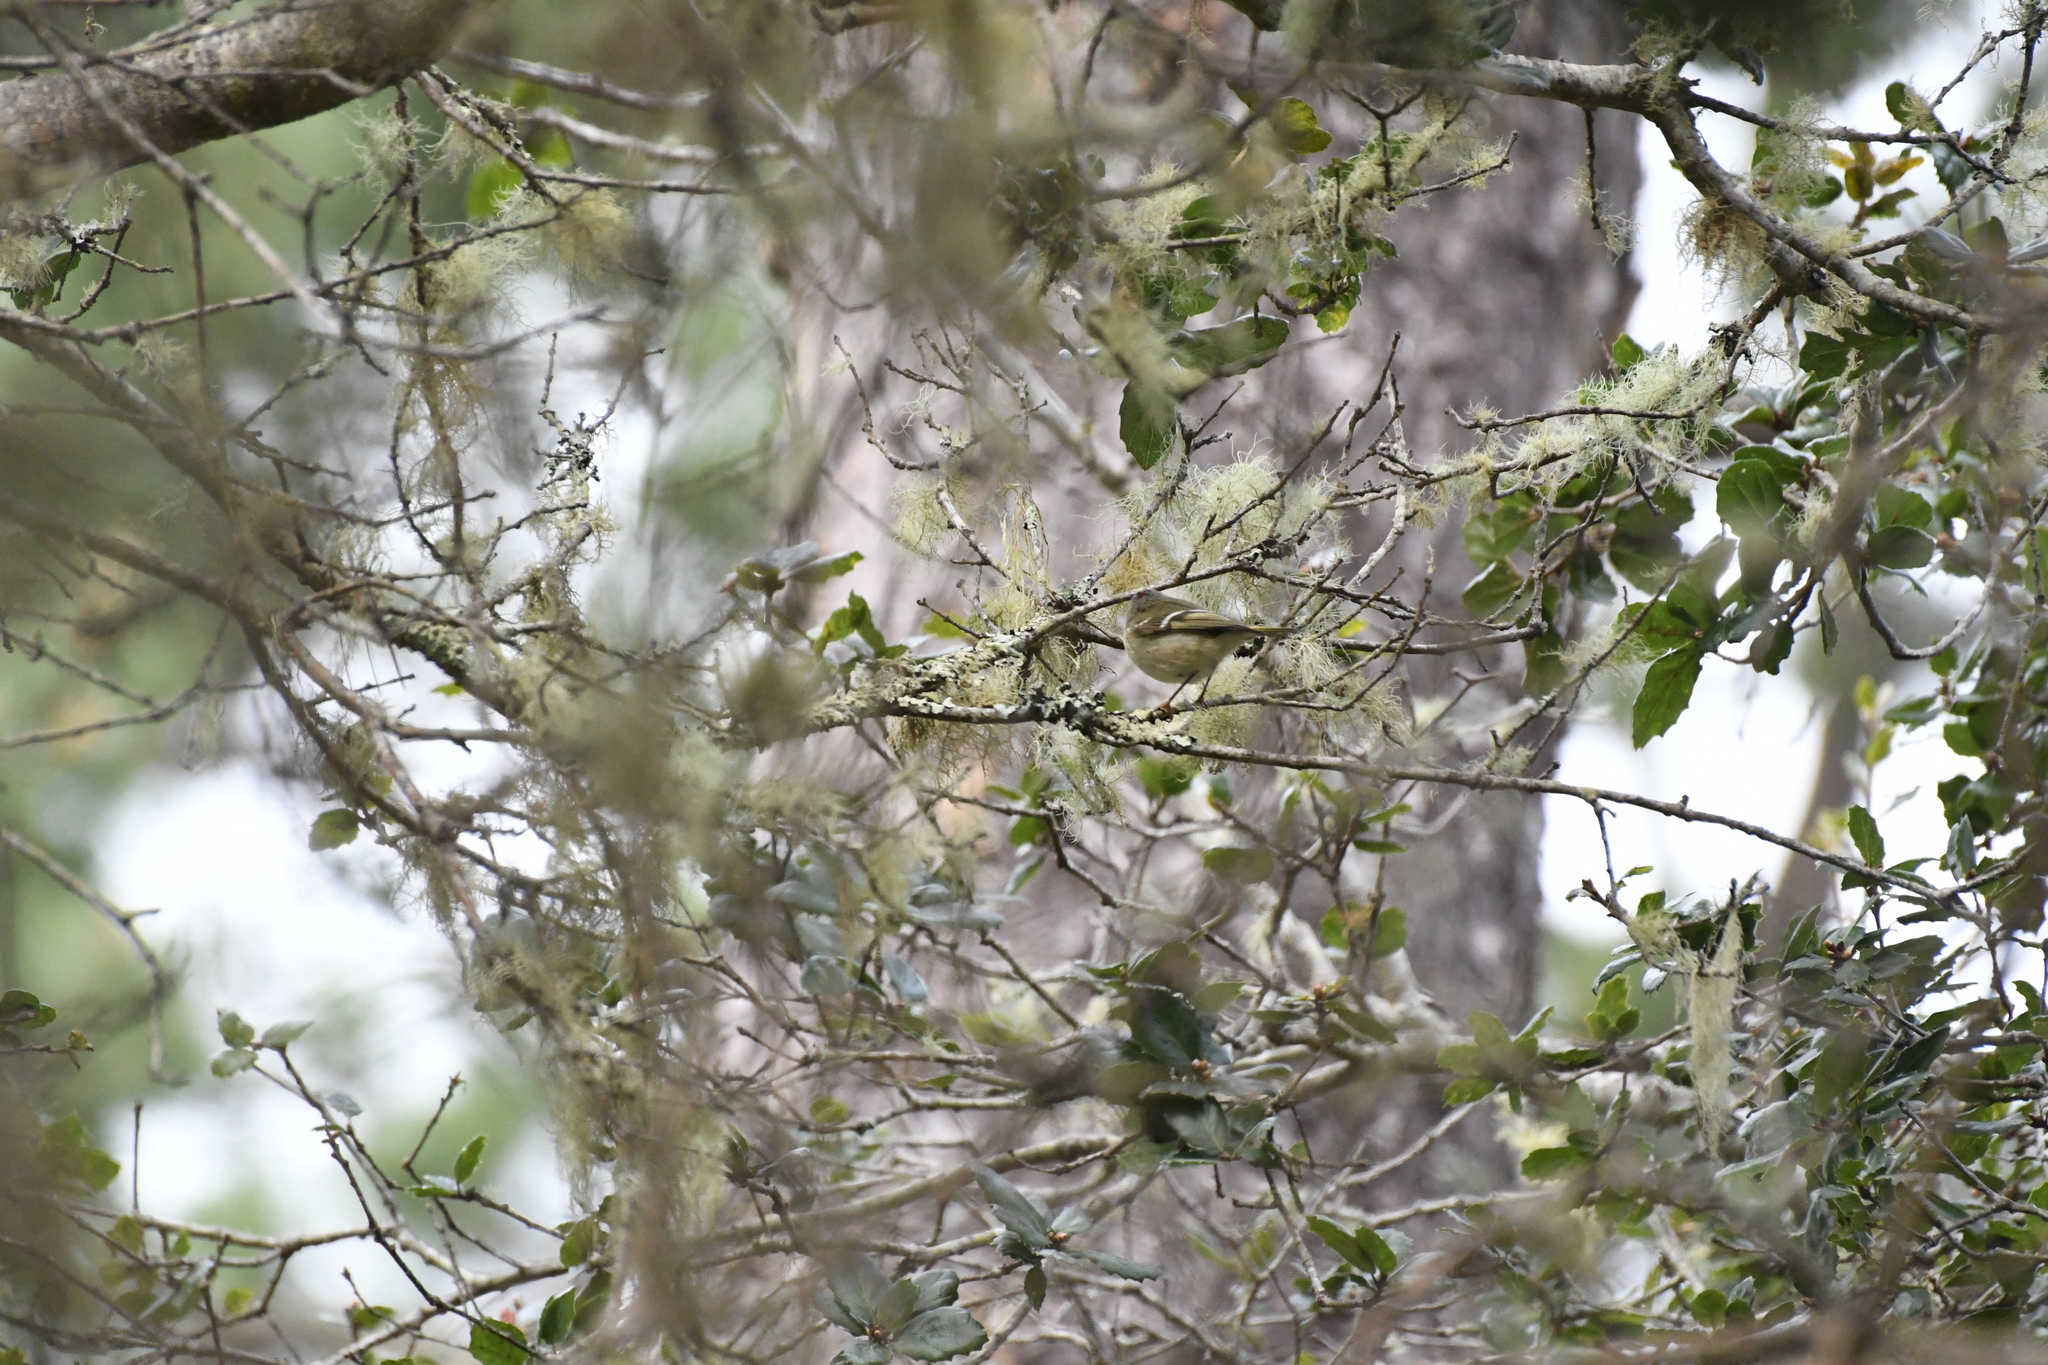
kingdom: Animalia
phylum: Chordata
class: Aves
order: Passeriformes
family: Regulidae
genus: Regulus
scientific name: Regulus calendula
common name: Ruby-crowned kinglet
